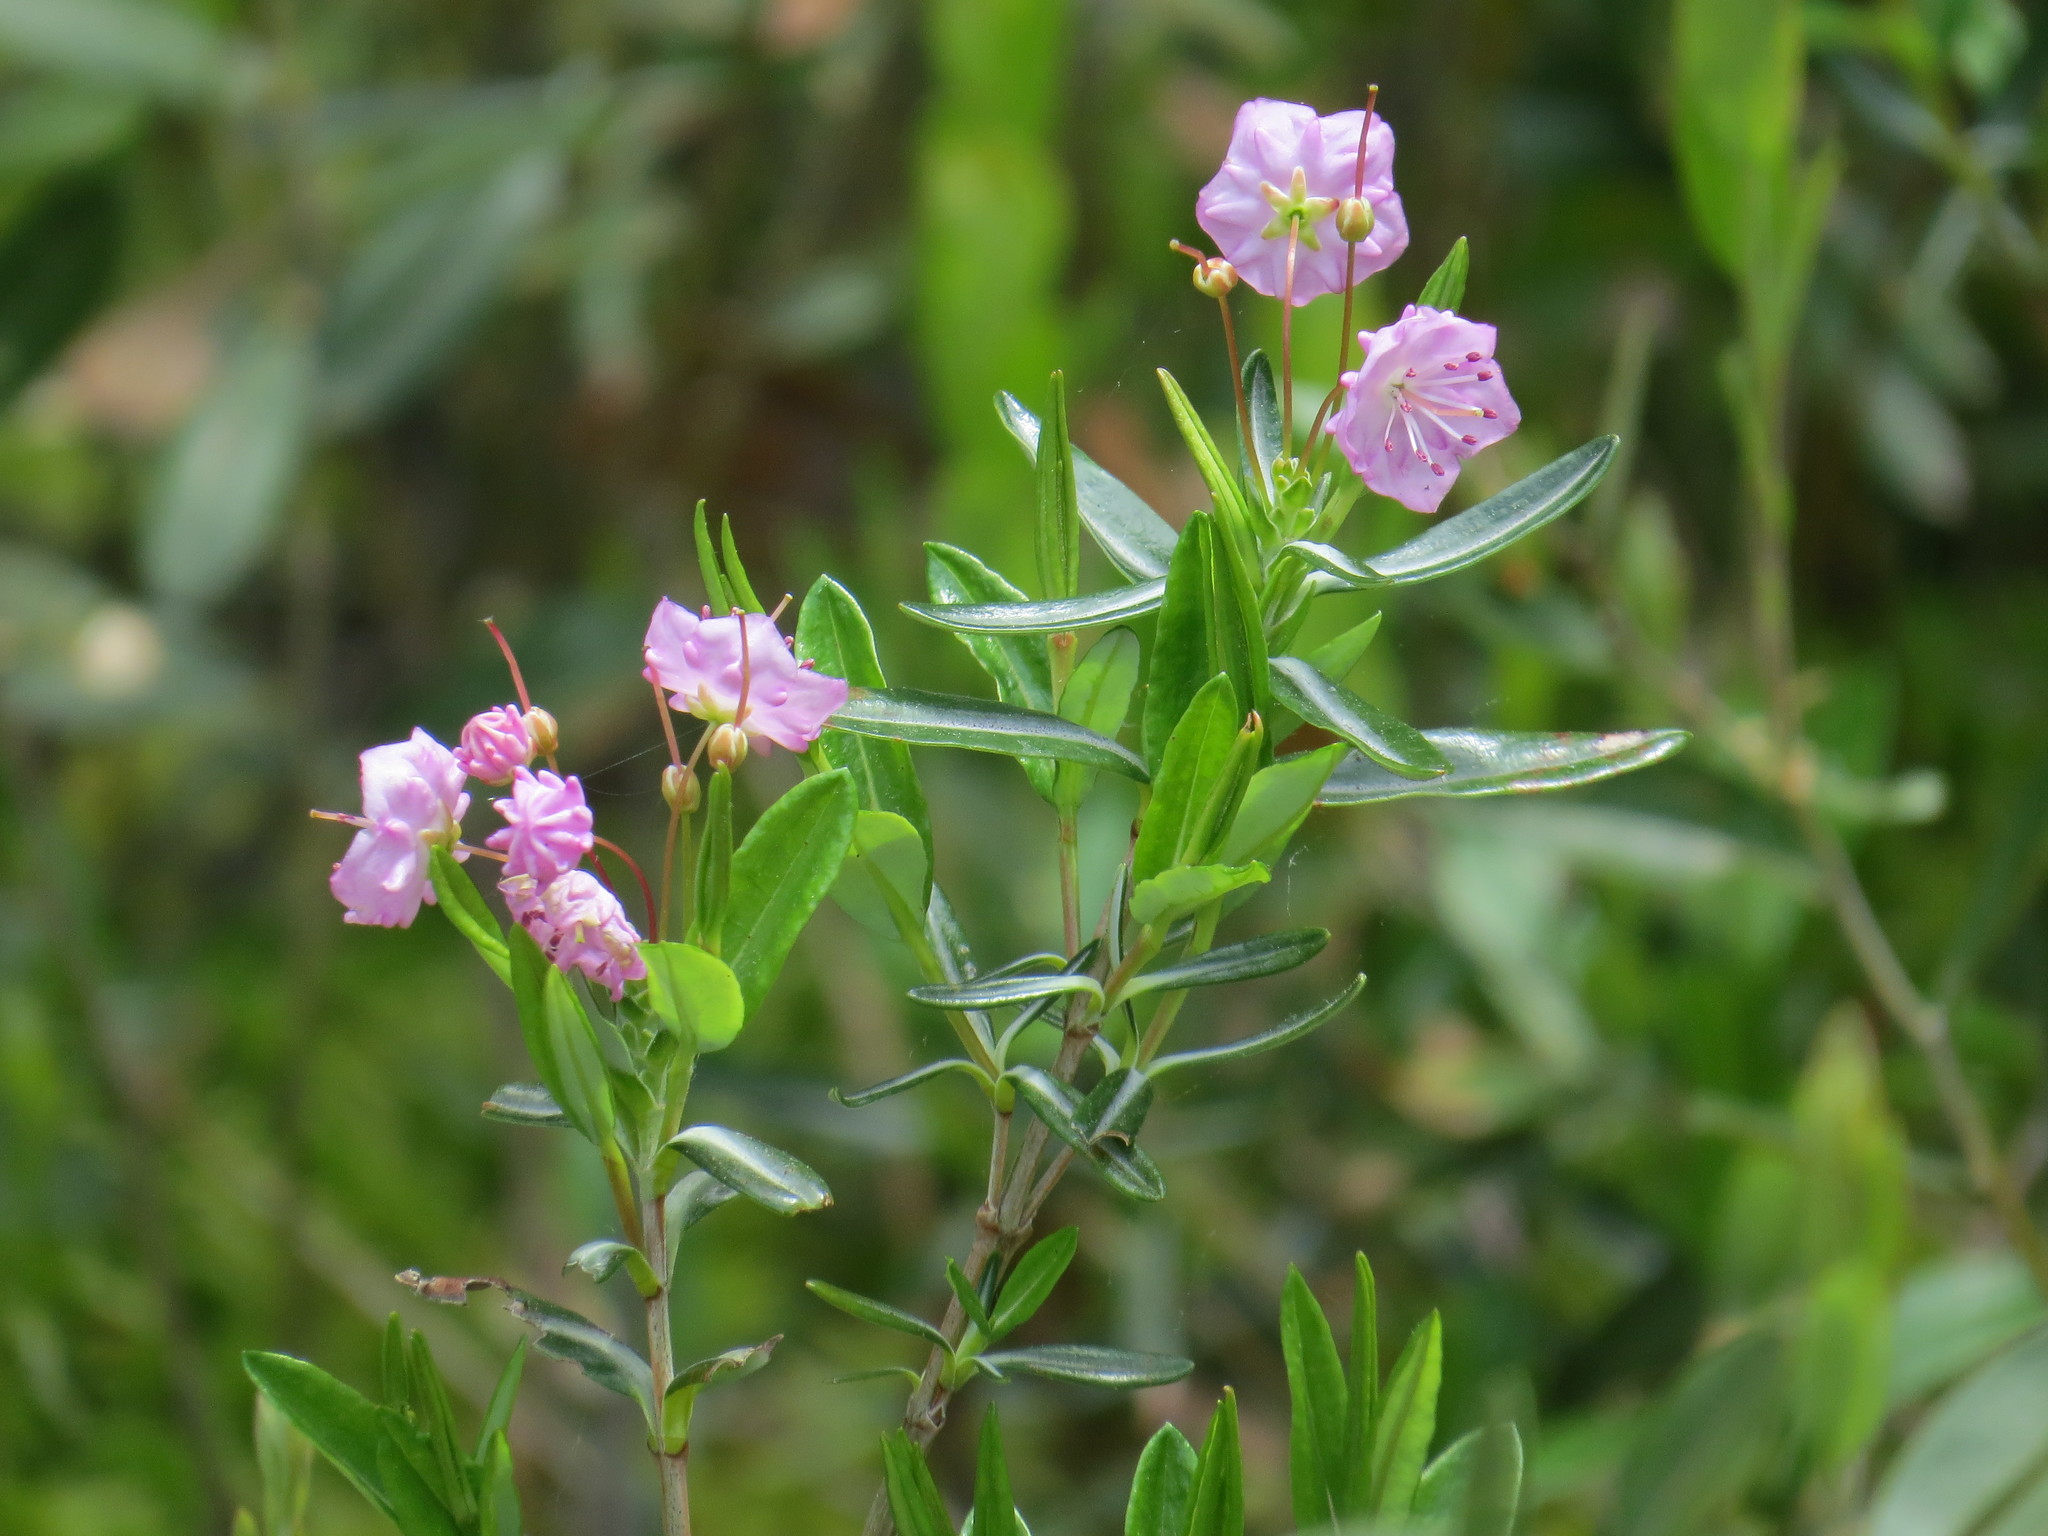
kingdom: Plantae
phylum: Tracheophyta
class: Magnoliopsida
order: Ericales
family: Ericaceae
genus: Kalmia
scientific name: Kalmia polifolia
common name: Bog-laurel
